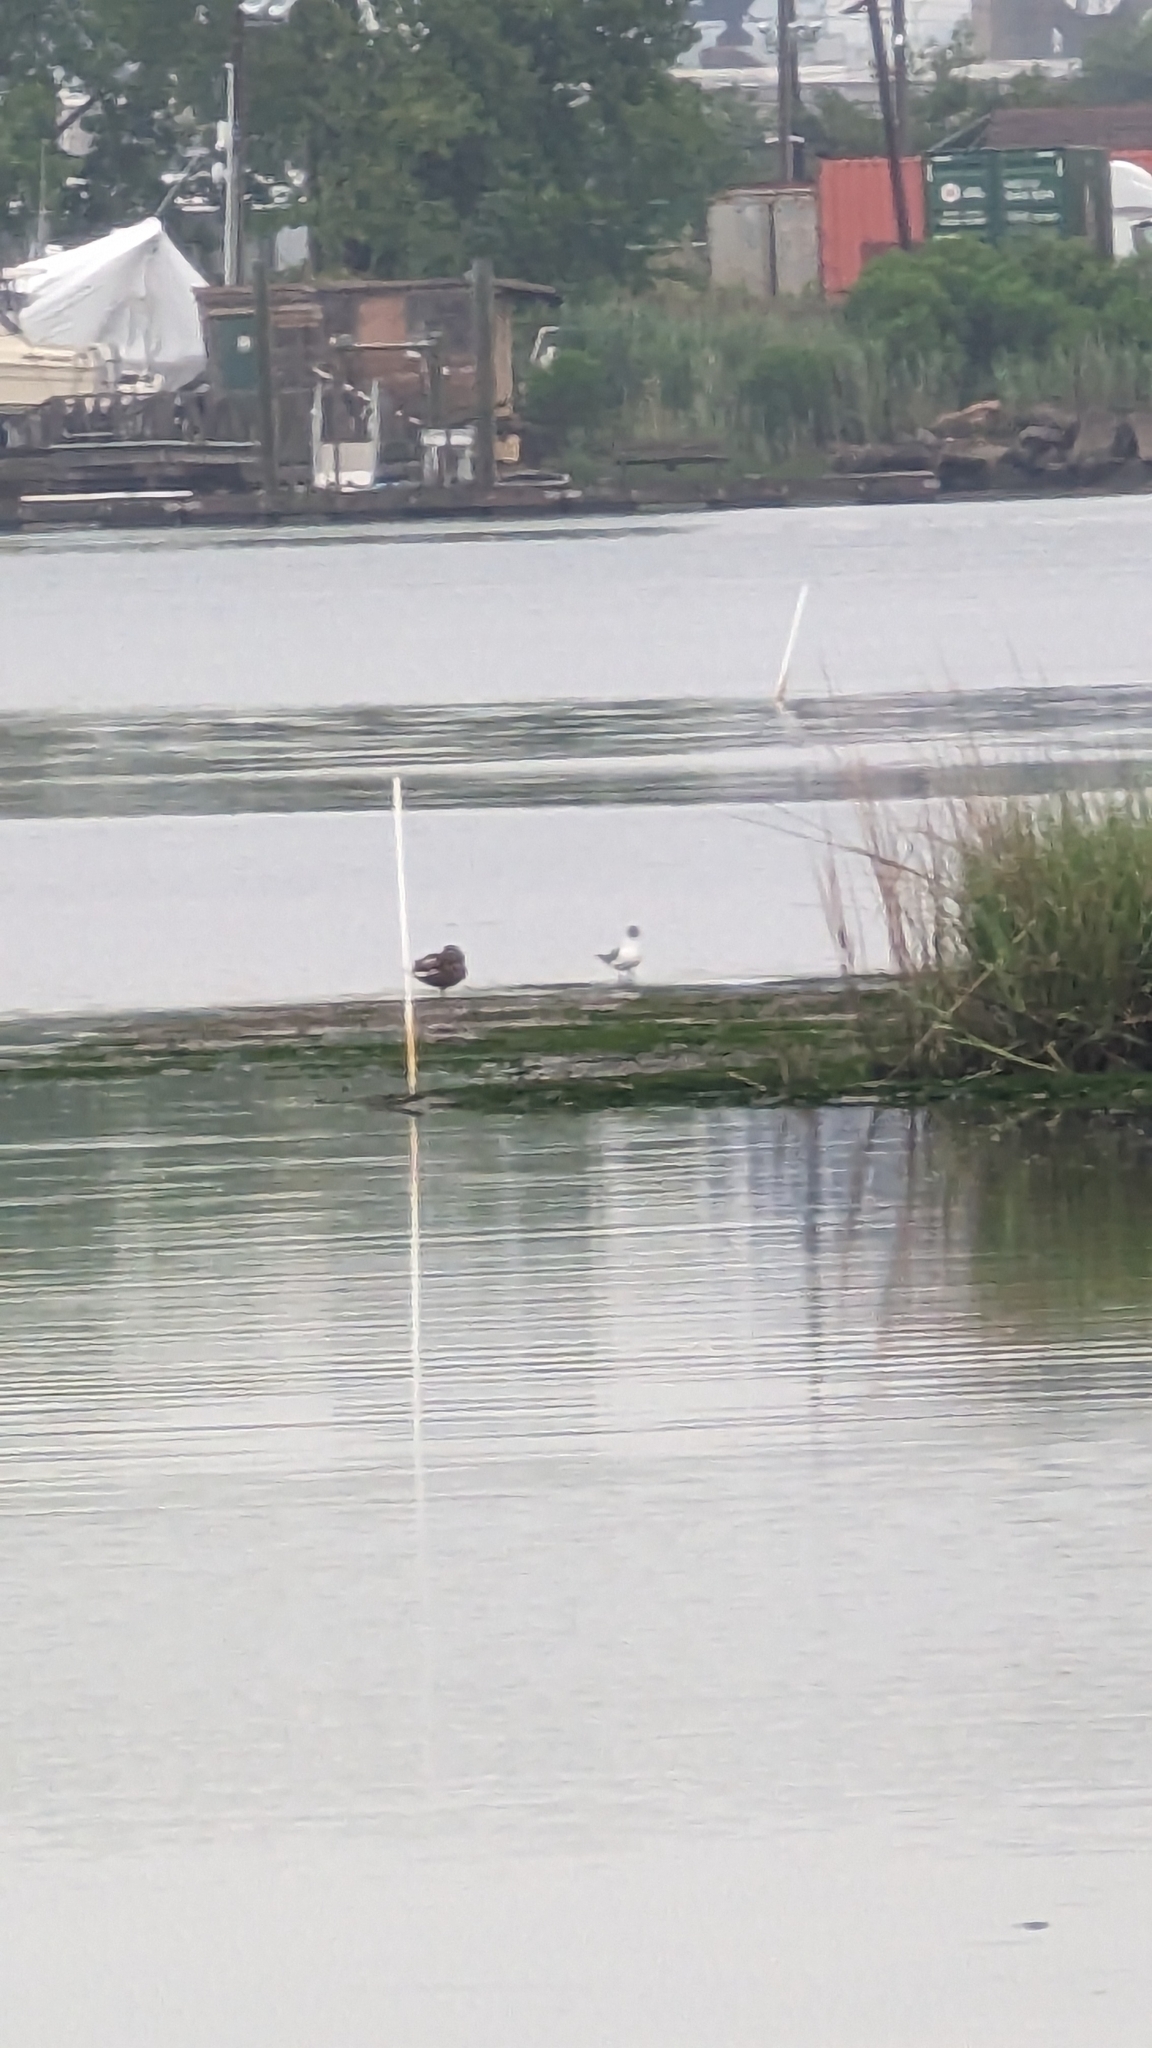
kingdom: Animalia
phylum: Chordata
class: Aves
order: Charadriiformes
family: Laridae
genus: Leucophaeus
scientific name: Leucophaeus atricilla
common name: Laughing gull
